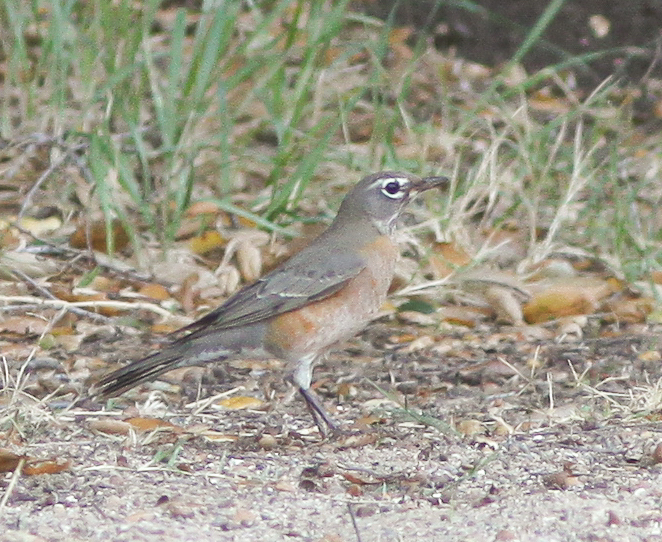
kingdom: Animalia
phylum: Chordata
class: Aves
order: Passeriformes
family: Turdidae
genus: Turdus
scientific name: Turdus migratorius
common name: American robin
